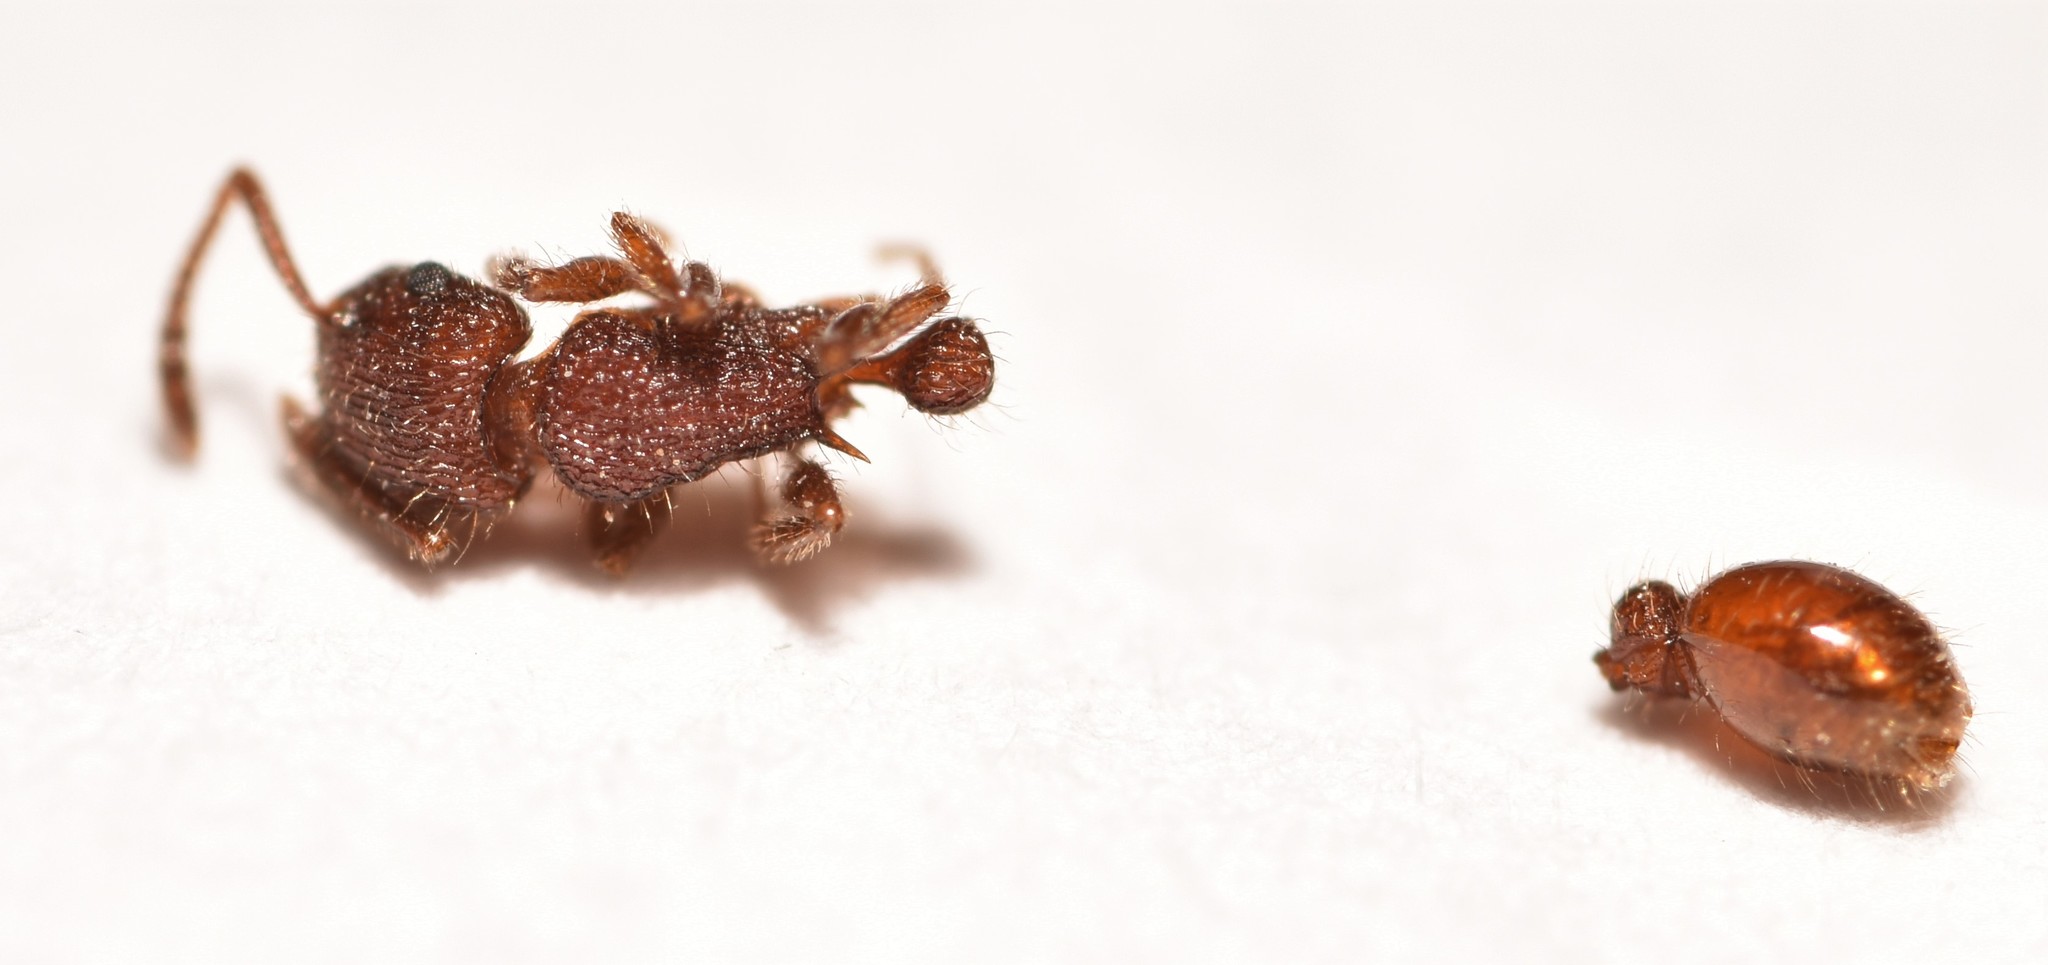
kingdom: Animalia
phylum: Arthropoda
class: Insecta
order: Hymenoptera
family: Formicidae
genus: Tetramorium
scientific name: Tetramorium spinosum
